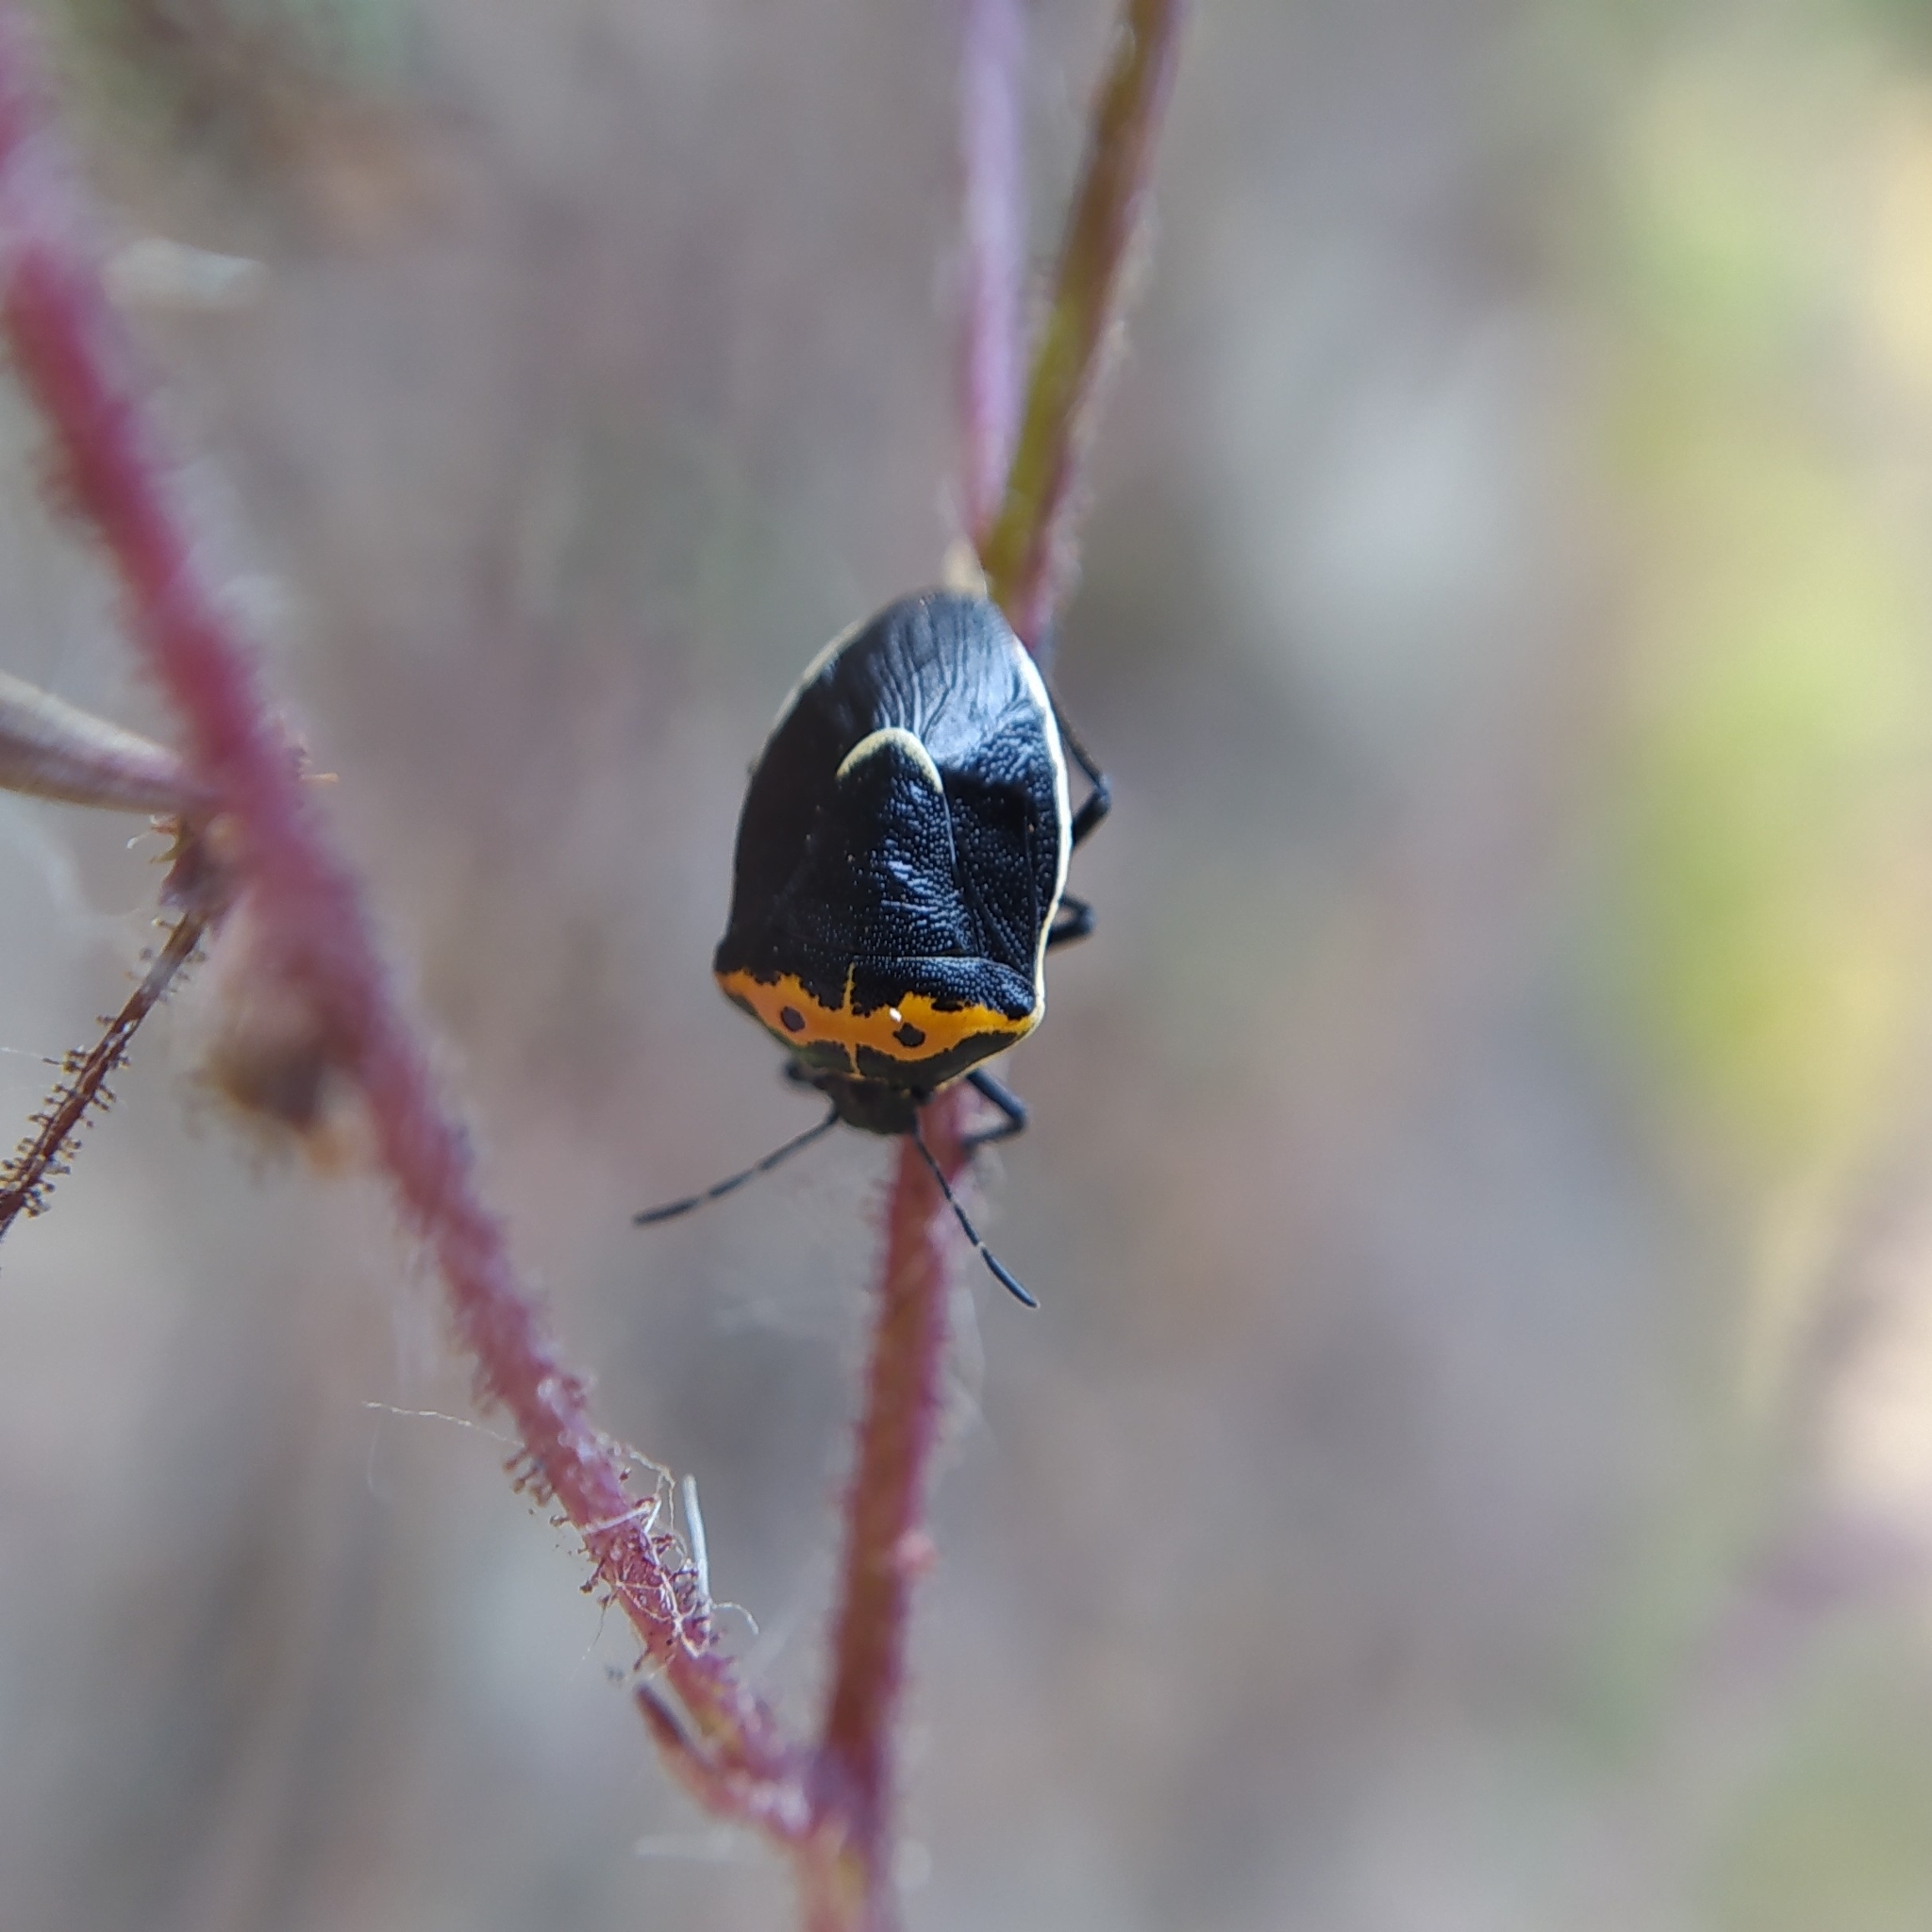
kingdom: Animalia
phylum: Arthropoda
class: Insecta
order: Hemiptera
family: Pentatomidae
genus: Cosmopepla
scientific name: Cosmopepla conspicillaris
